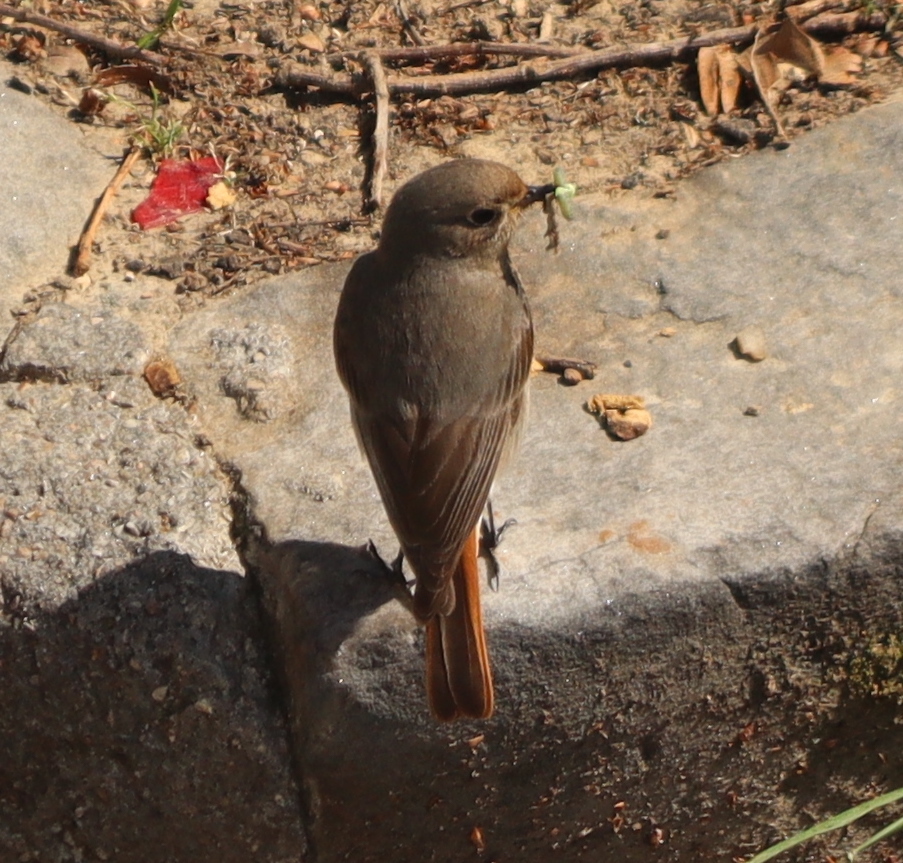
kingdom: Animalia
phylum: Chordata
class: Aves
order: Passeriformes
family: Muscicapidae
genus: Phoenicurus
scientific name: Phoenicurus ochruros
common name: Black redstart
